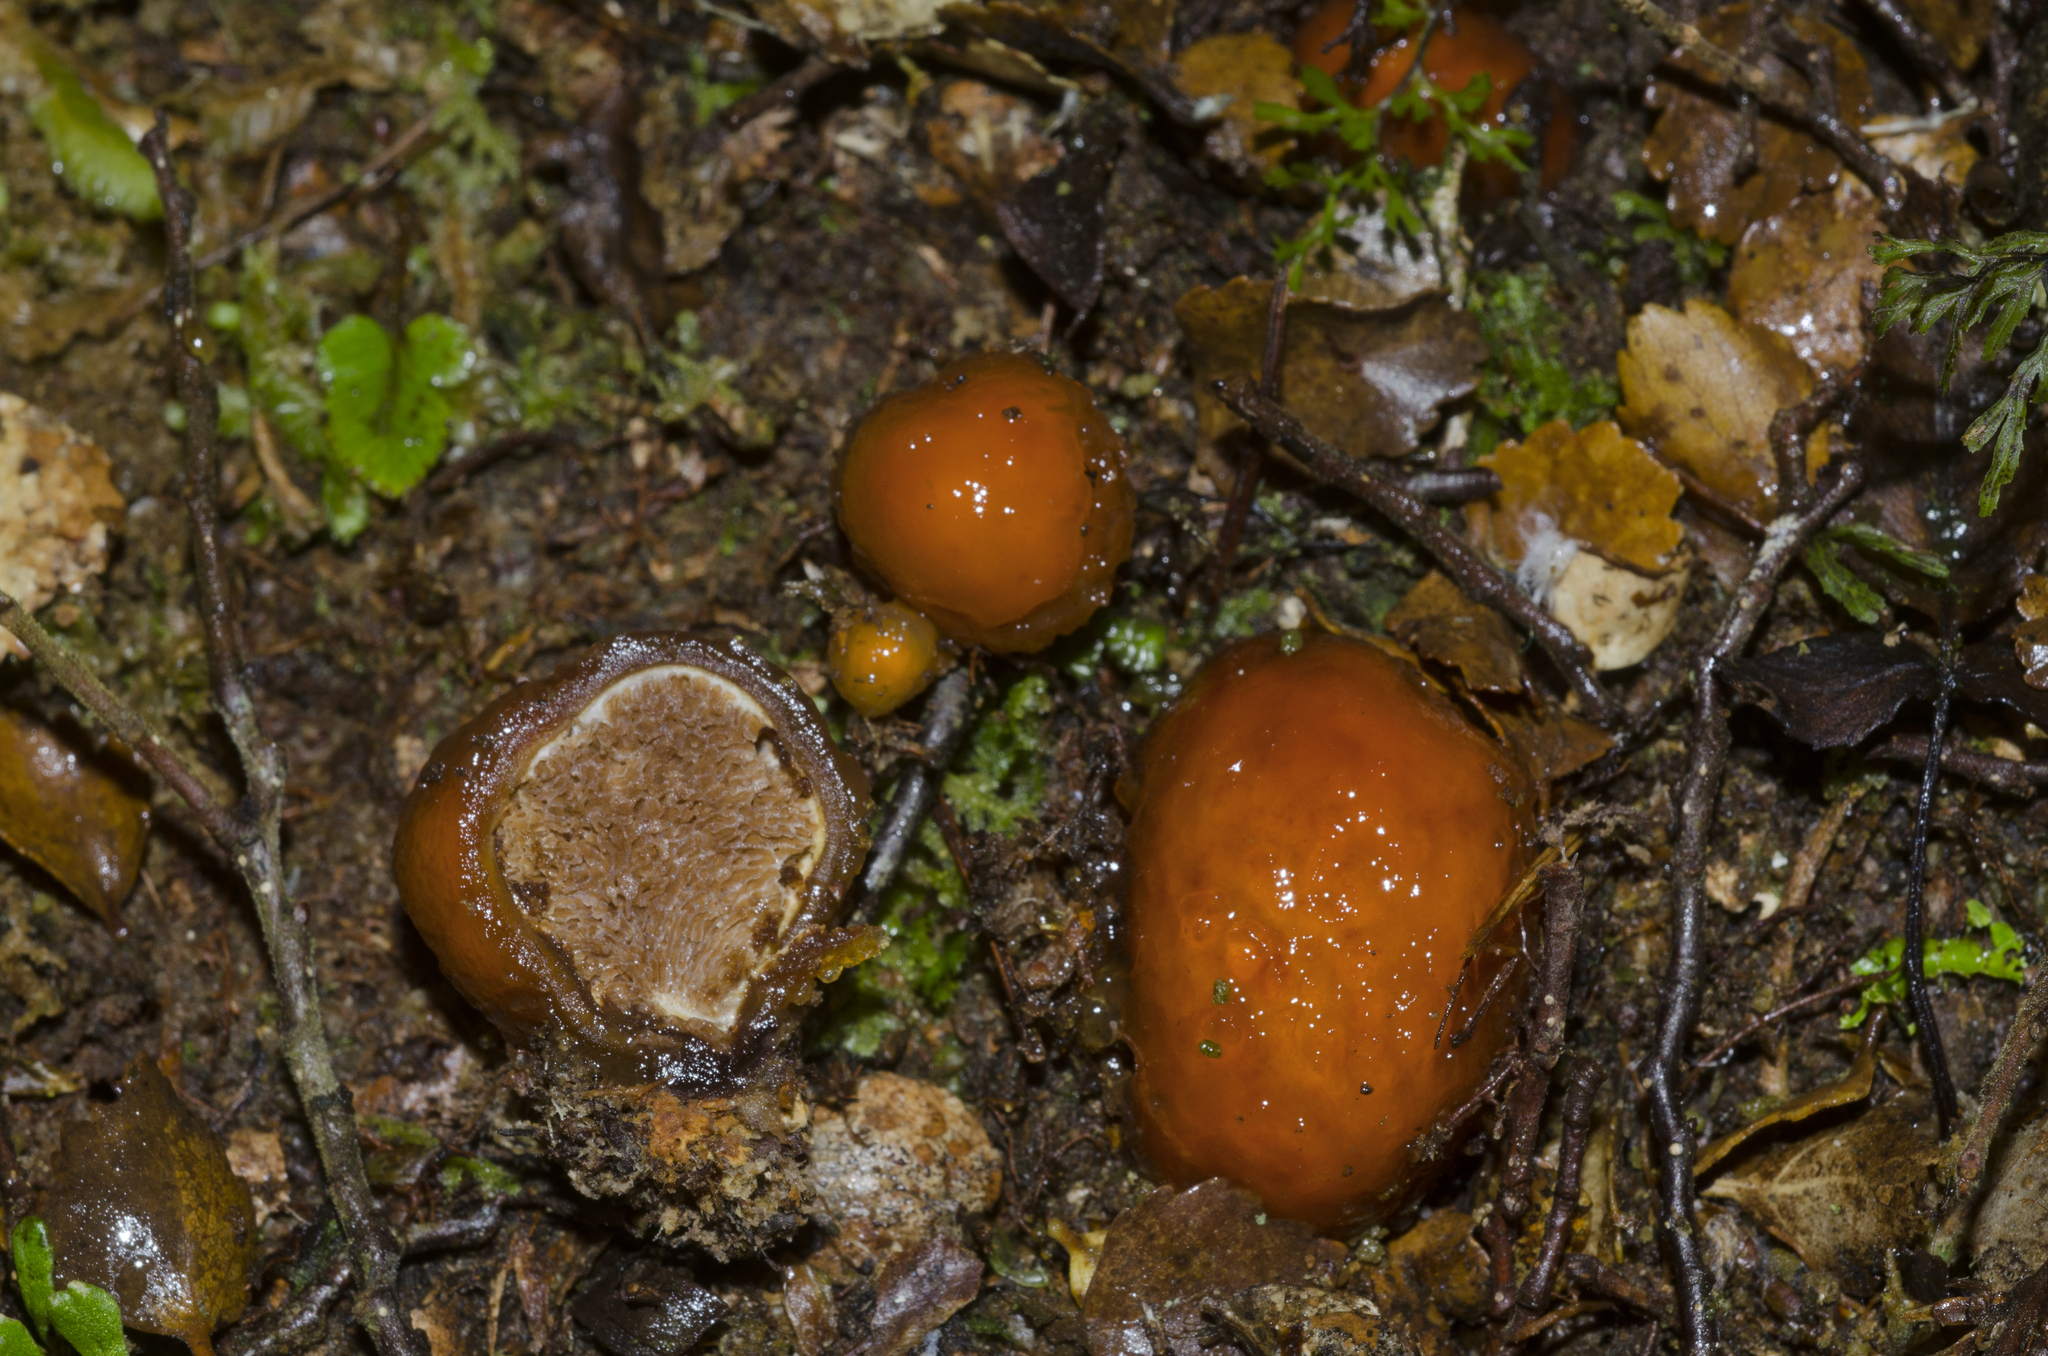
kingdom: Fungi
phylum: Basidiomycota
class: Agaricomycetes
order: Agaricales
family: Cortinariaceae
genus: Cortinarius
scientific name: Cortinarius beeverorum
